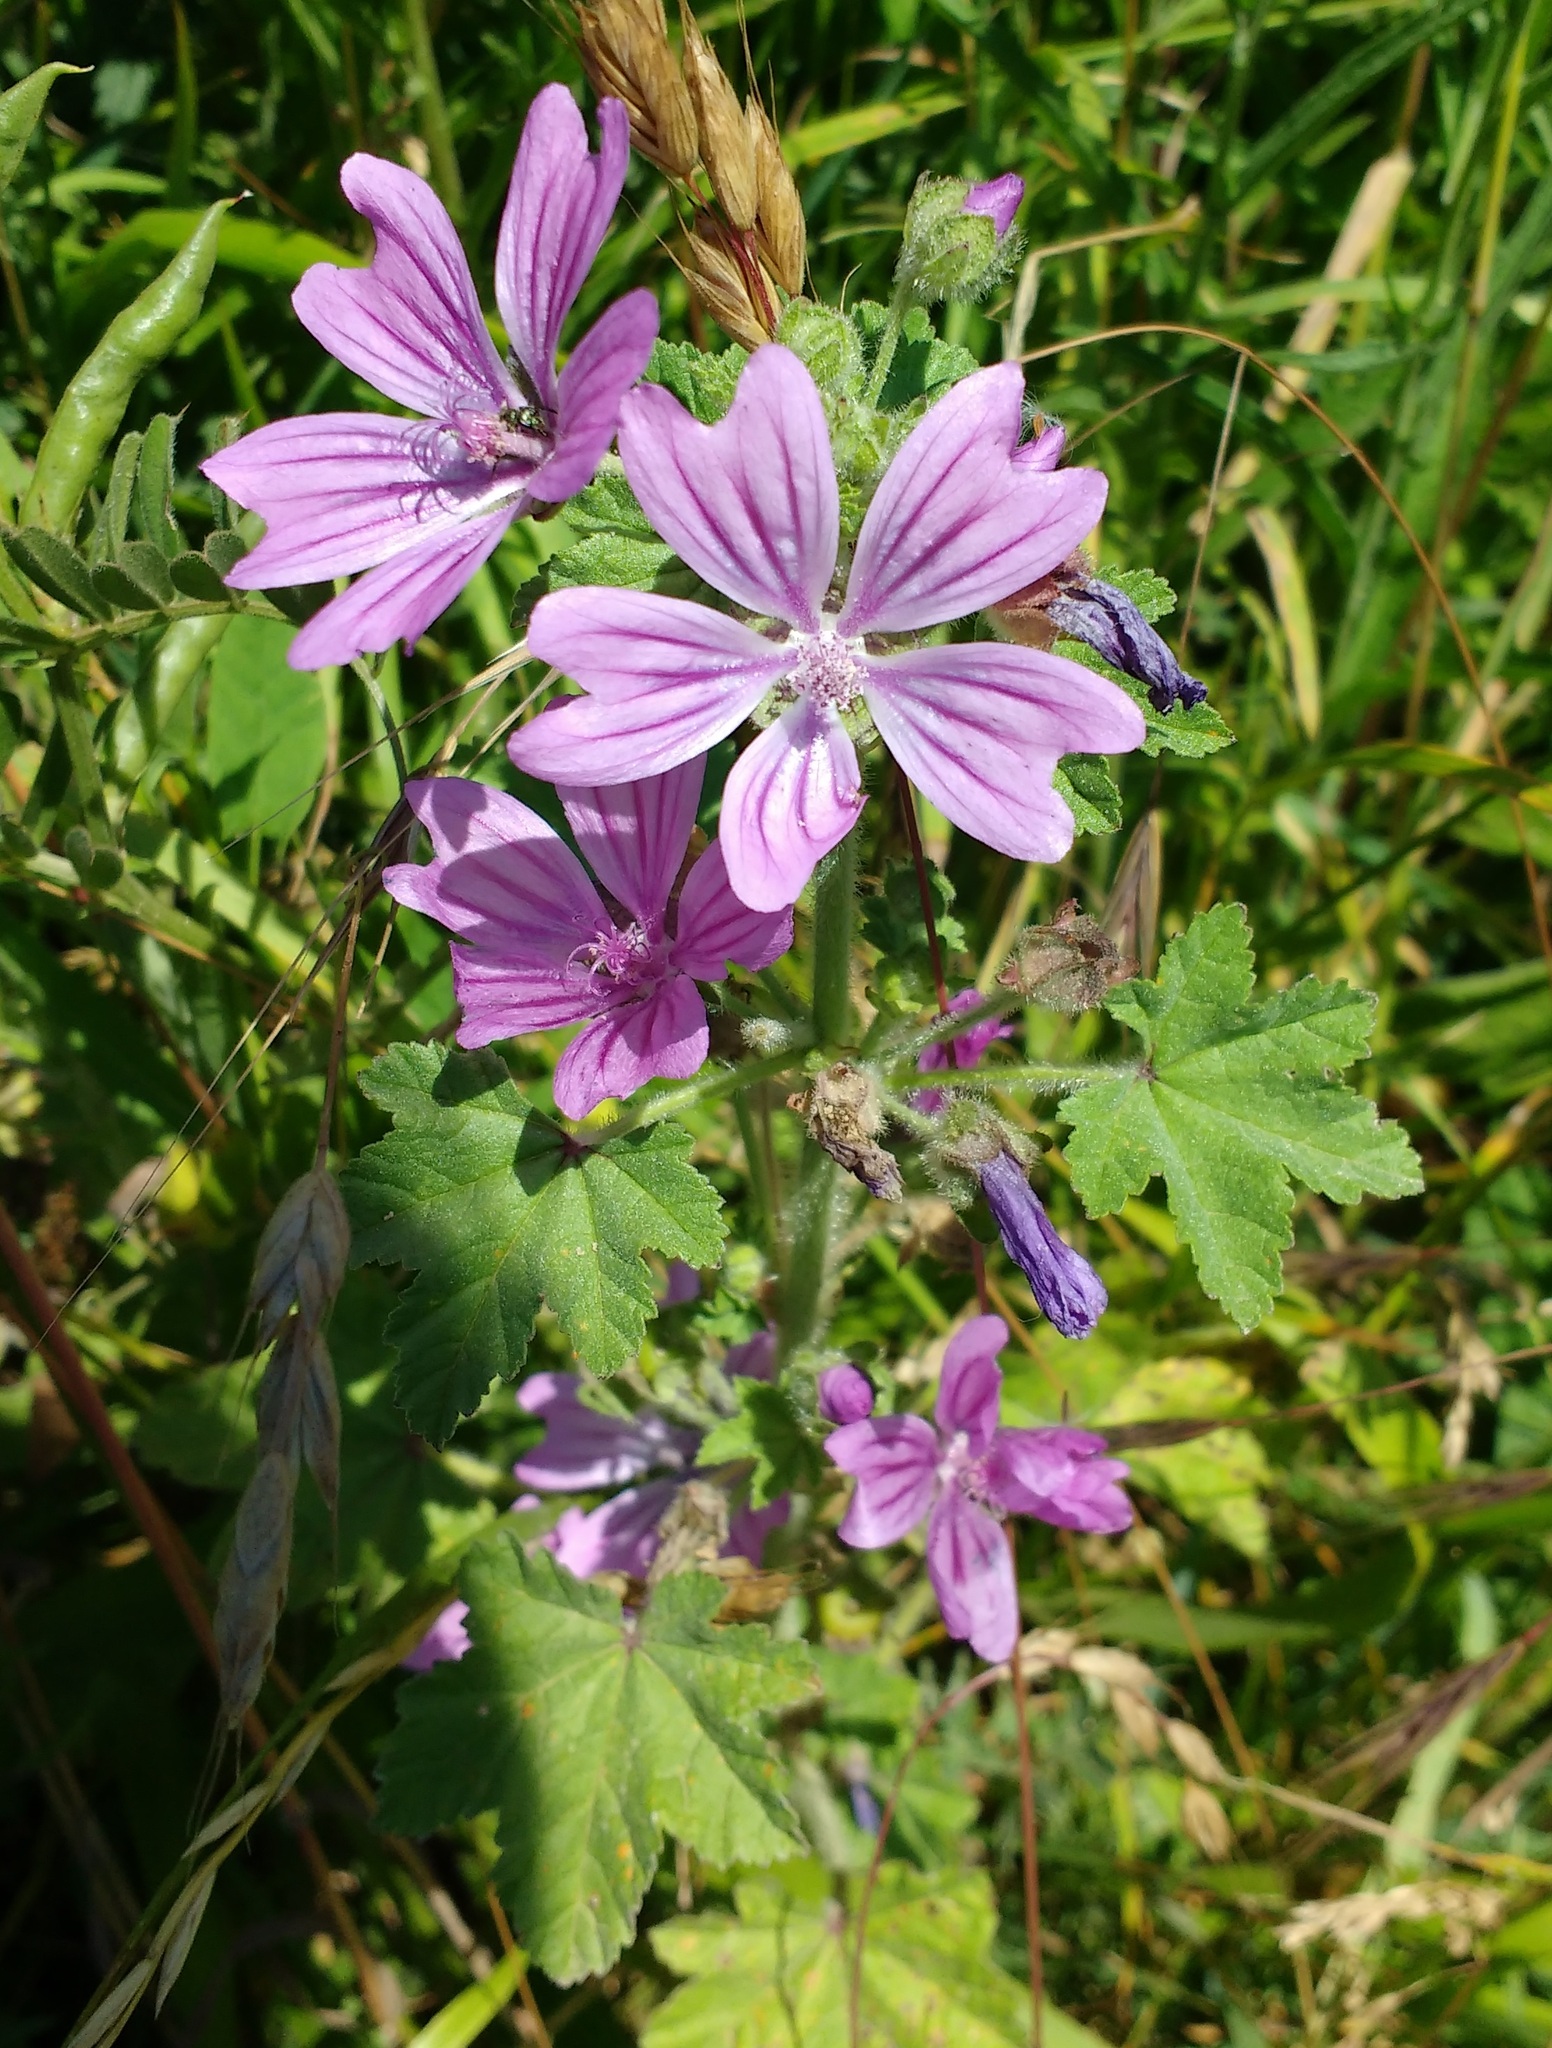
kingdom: Plantae
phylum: Tracheophyta
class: Magnoliopsida
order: Malvales
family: Malvaceae
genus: Malva
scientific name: Malva sylvestris
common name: Common mallow
